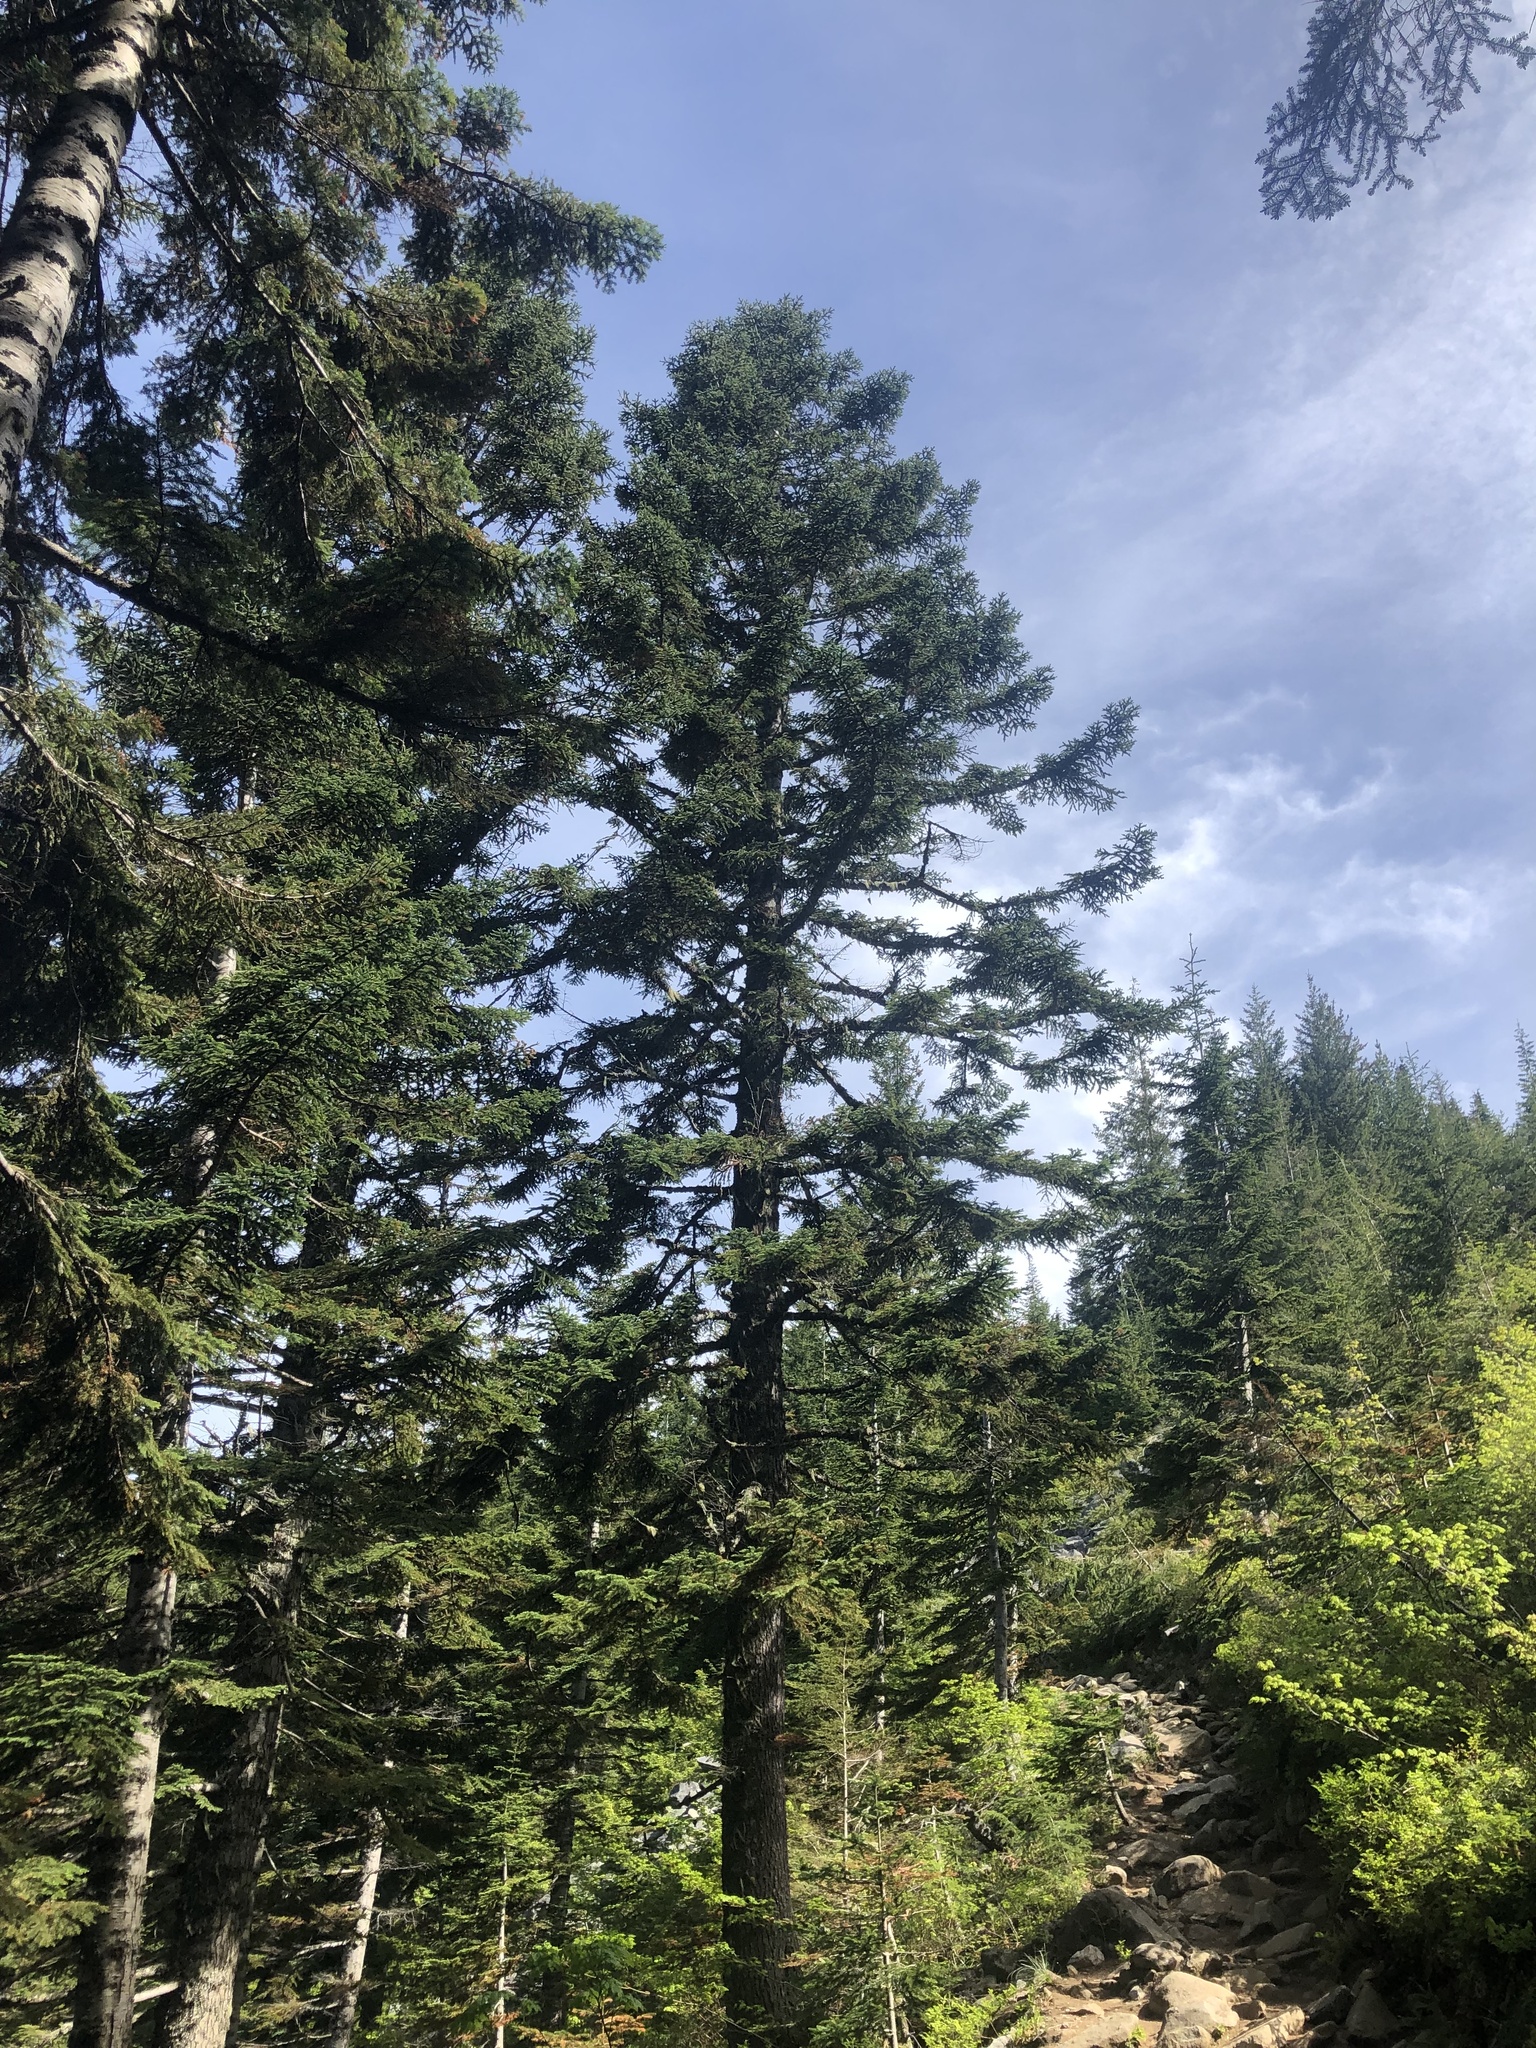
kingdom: Plantae
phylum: Tracheophyta
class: Pinopsida
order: Pinales
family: Pinaceae
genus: Abies
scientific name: Abies procera
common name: Noble fir
